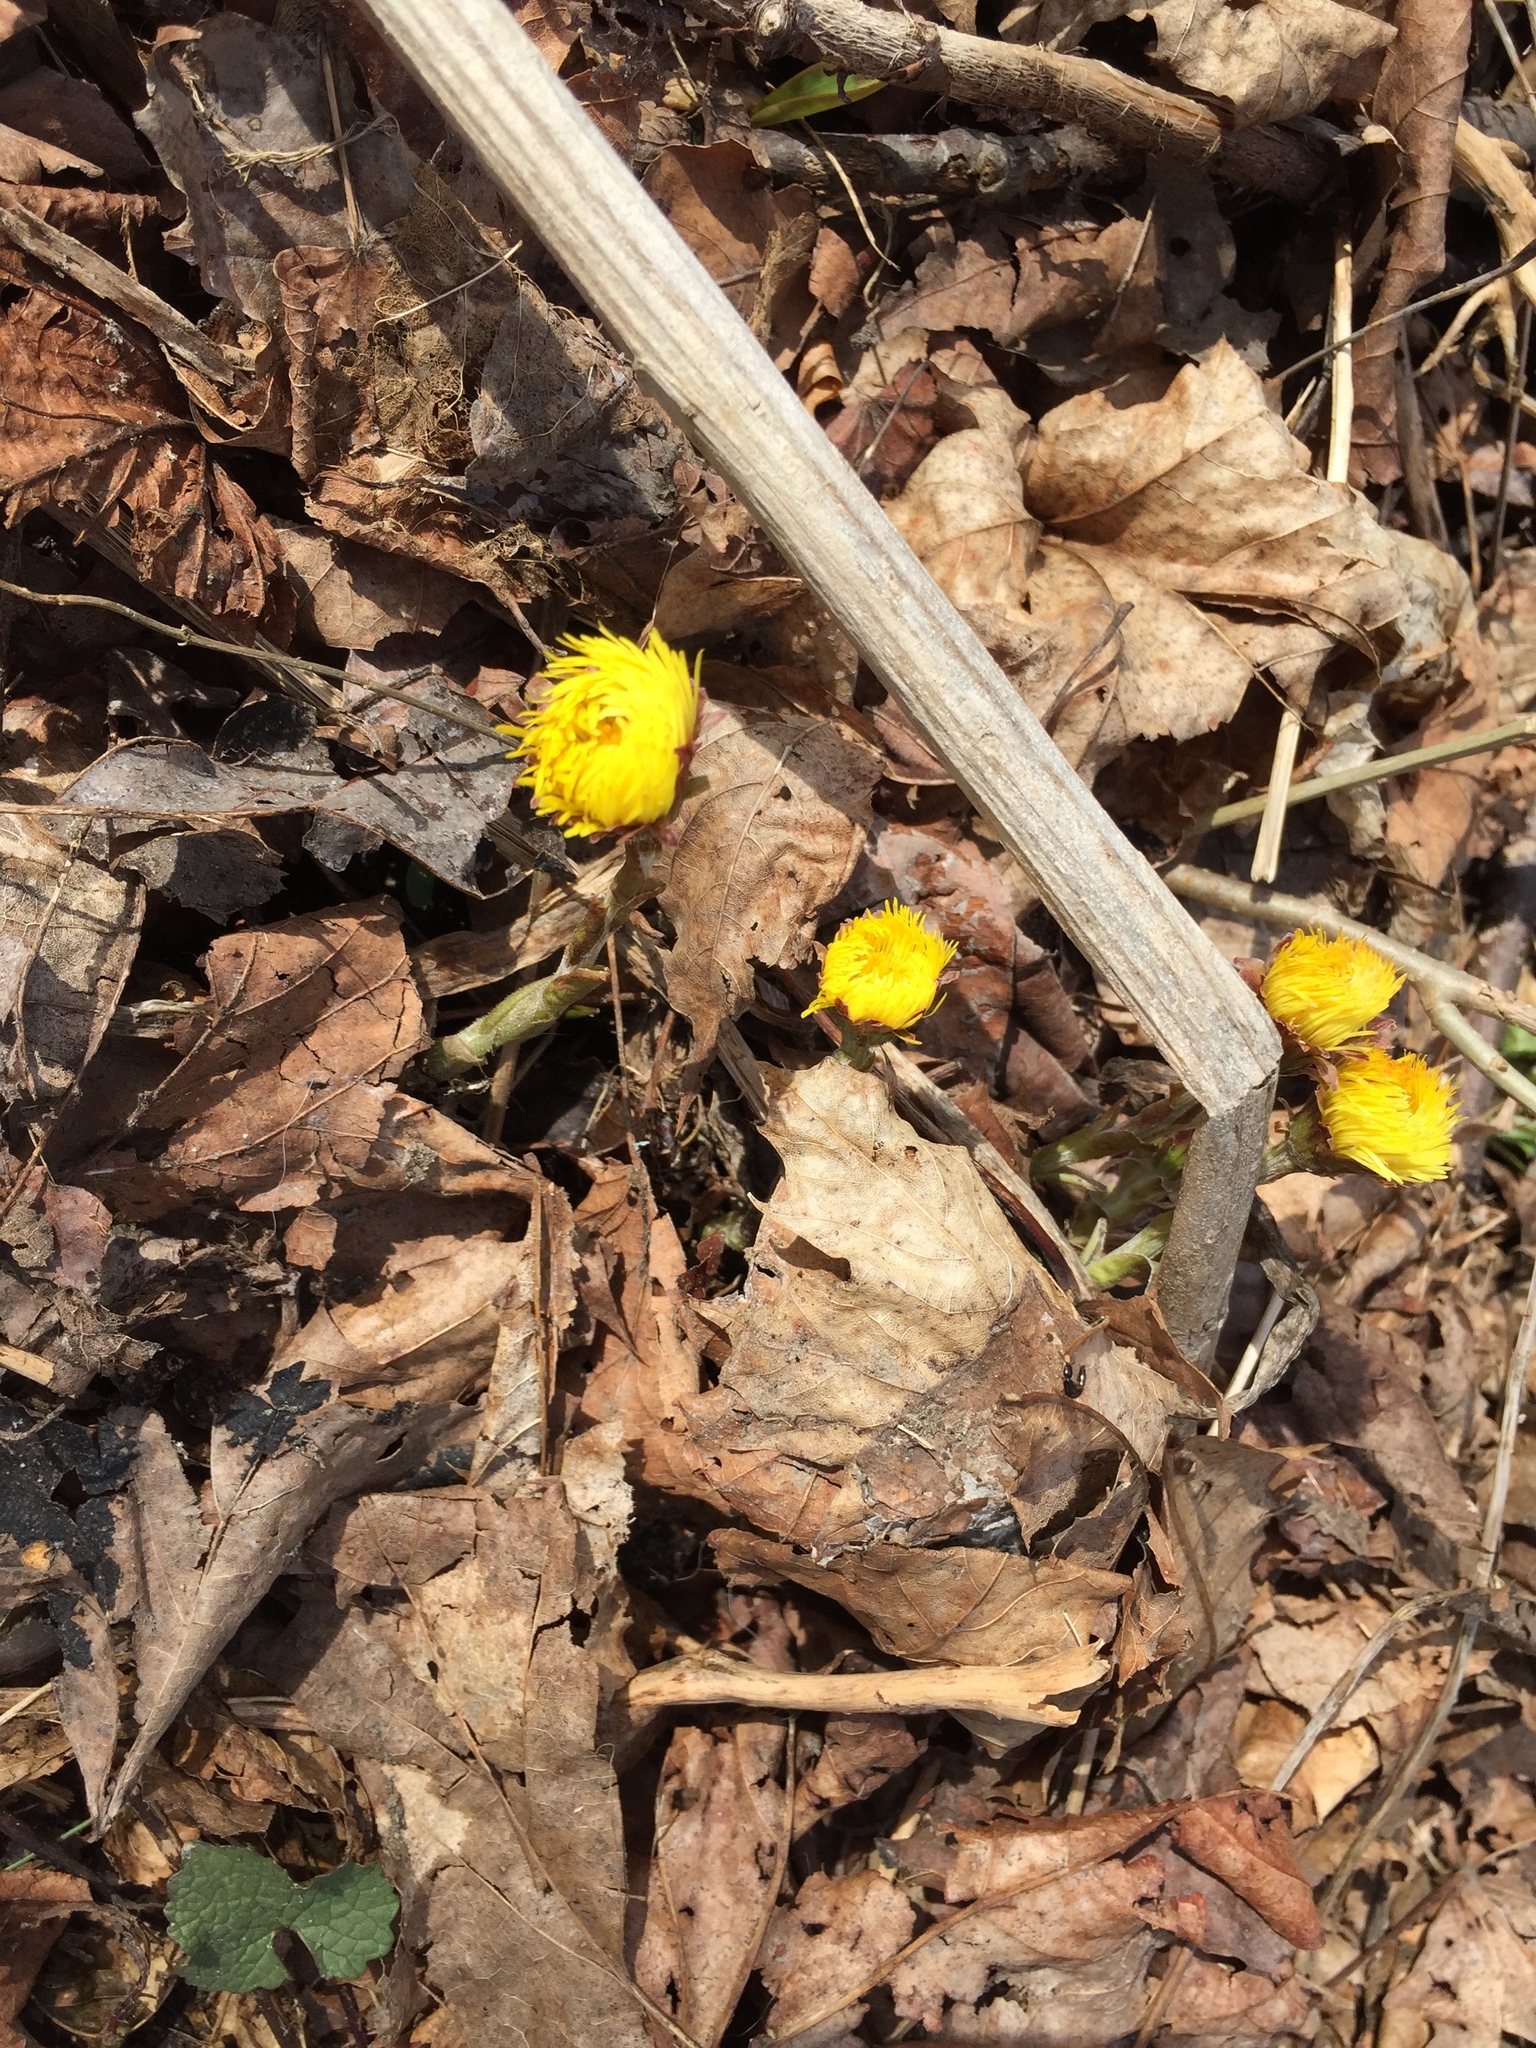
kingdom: Plantae
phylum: Tracheophyta
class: Magnoliopsida
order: Asterales
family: Asteraceae
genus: Tussilago
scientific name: Tussilago farfara
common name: Coltsfoot
